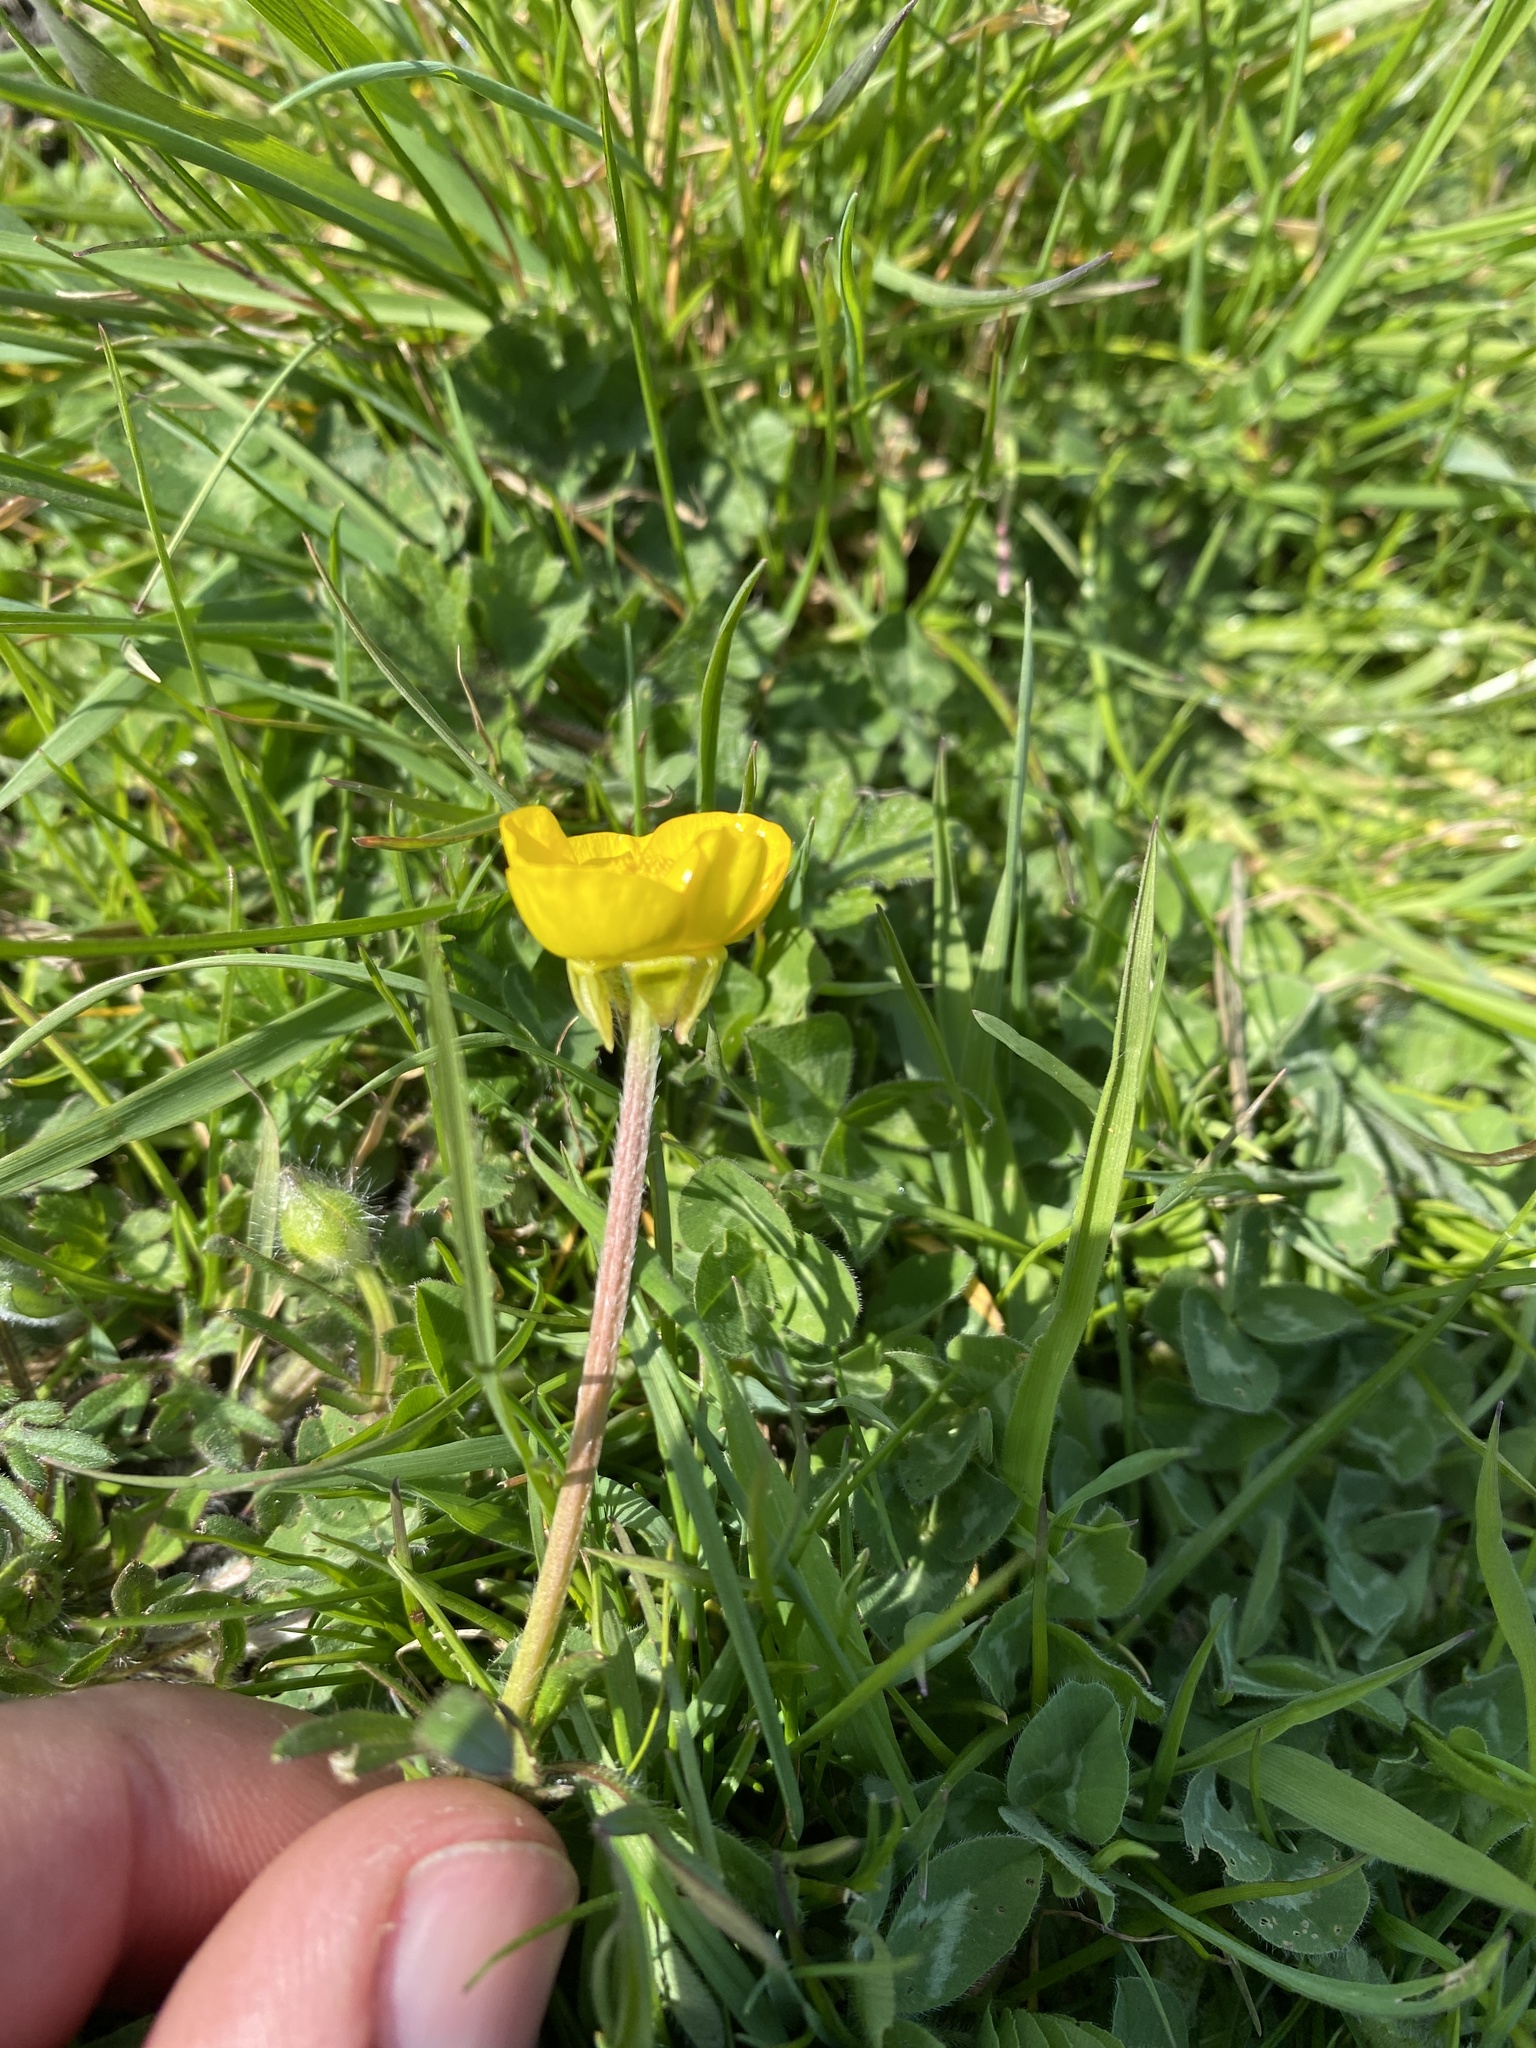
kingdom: Plantae
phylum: Tracheophyta
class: Magnoliopsida
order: Ranunculales
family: Ranunculaceae
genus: Ranunculus
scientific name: Ranunculus bulbosus
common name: Bulbous buttercup
